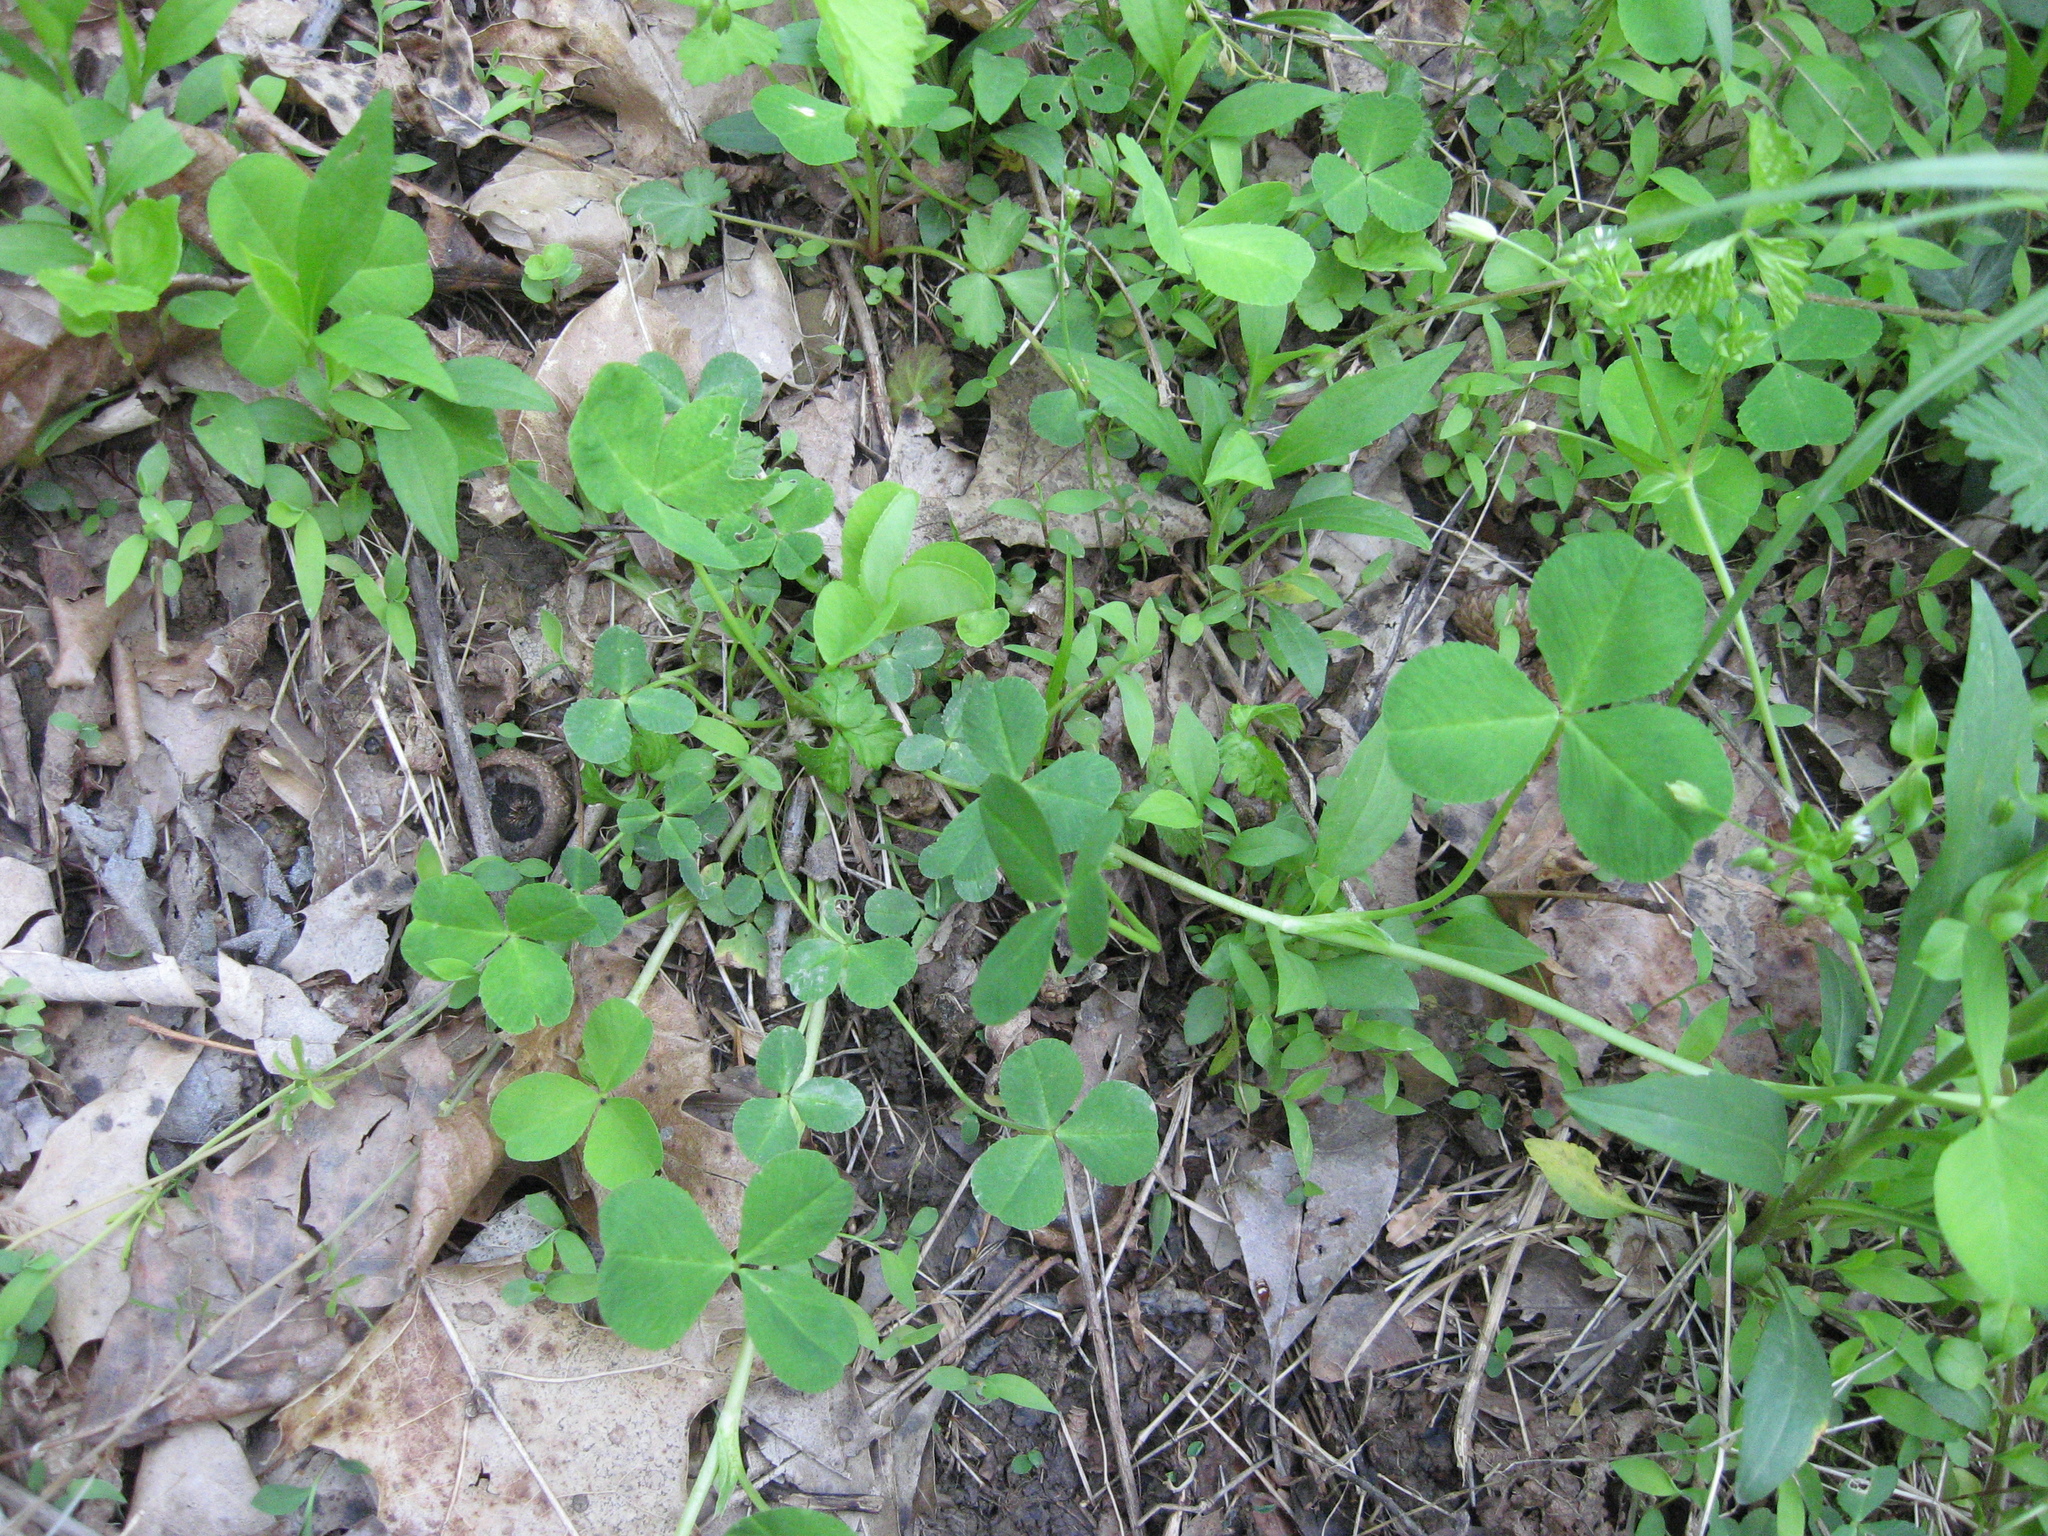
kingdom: Plantae
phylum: Tracheophyta
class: Magnoliopsida
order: Fabales
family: Fabaceae
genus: Trifolium
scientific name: Trifolium stoloniferum
